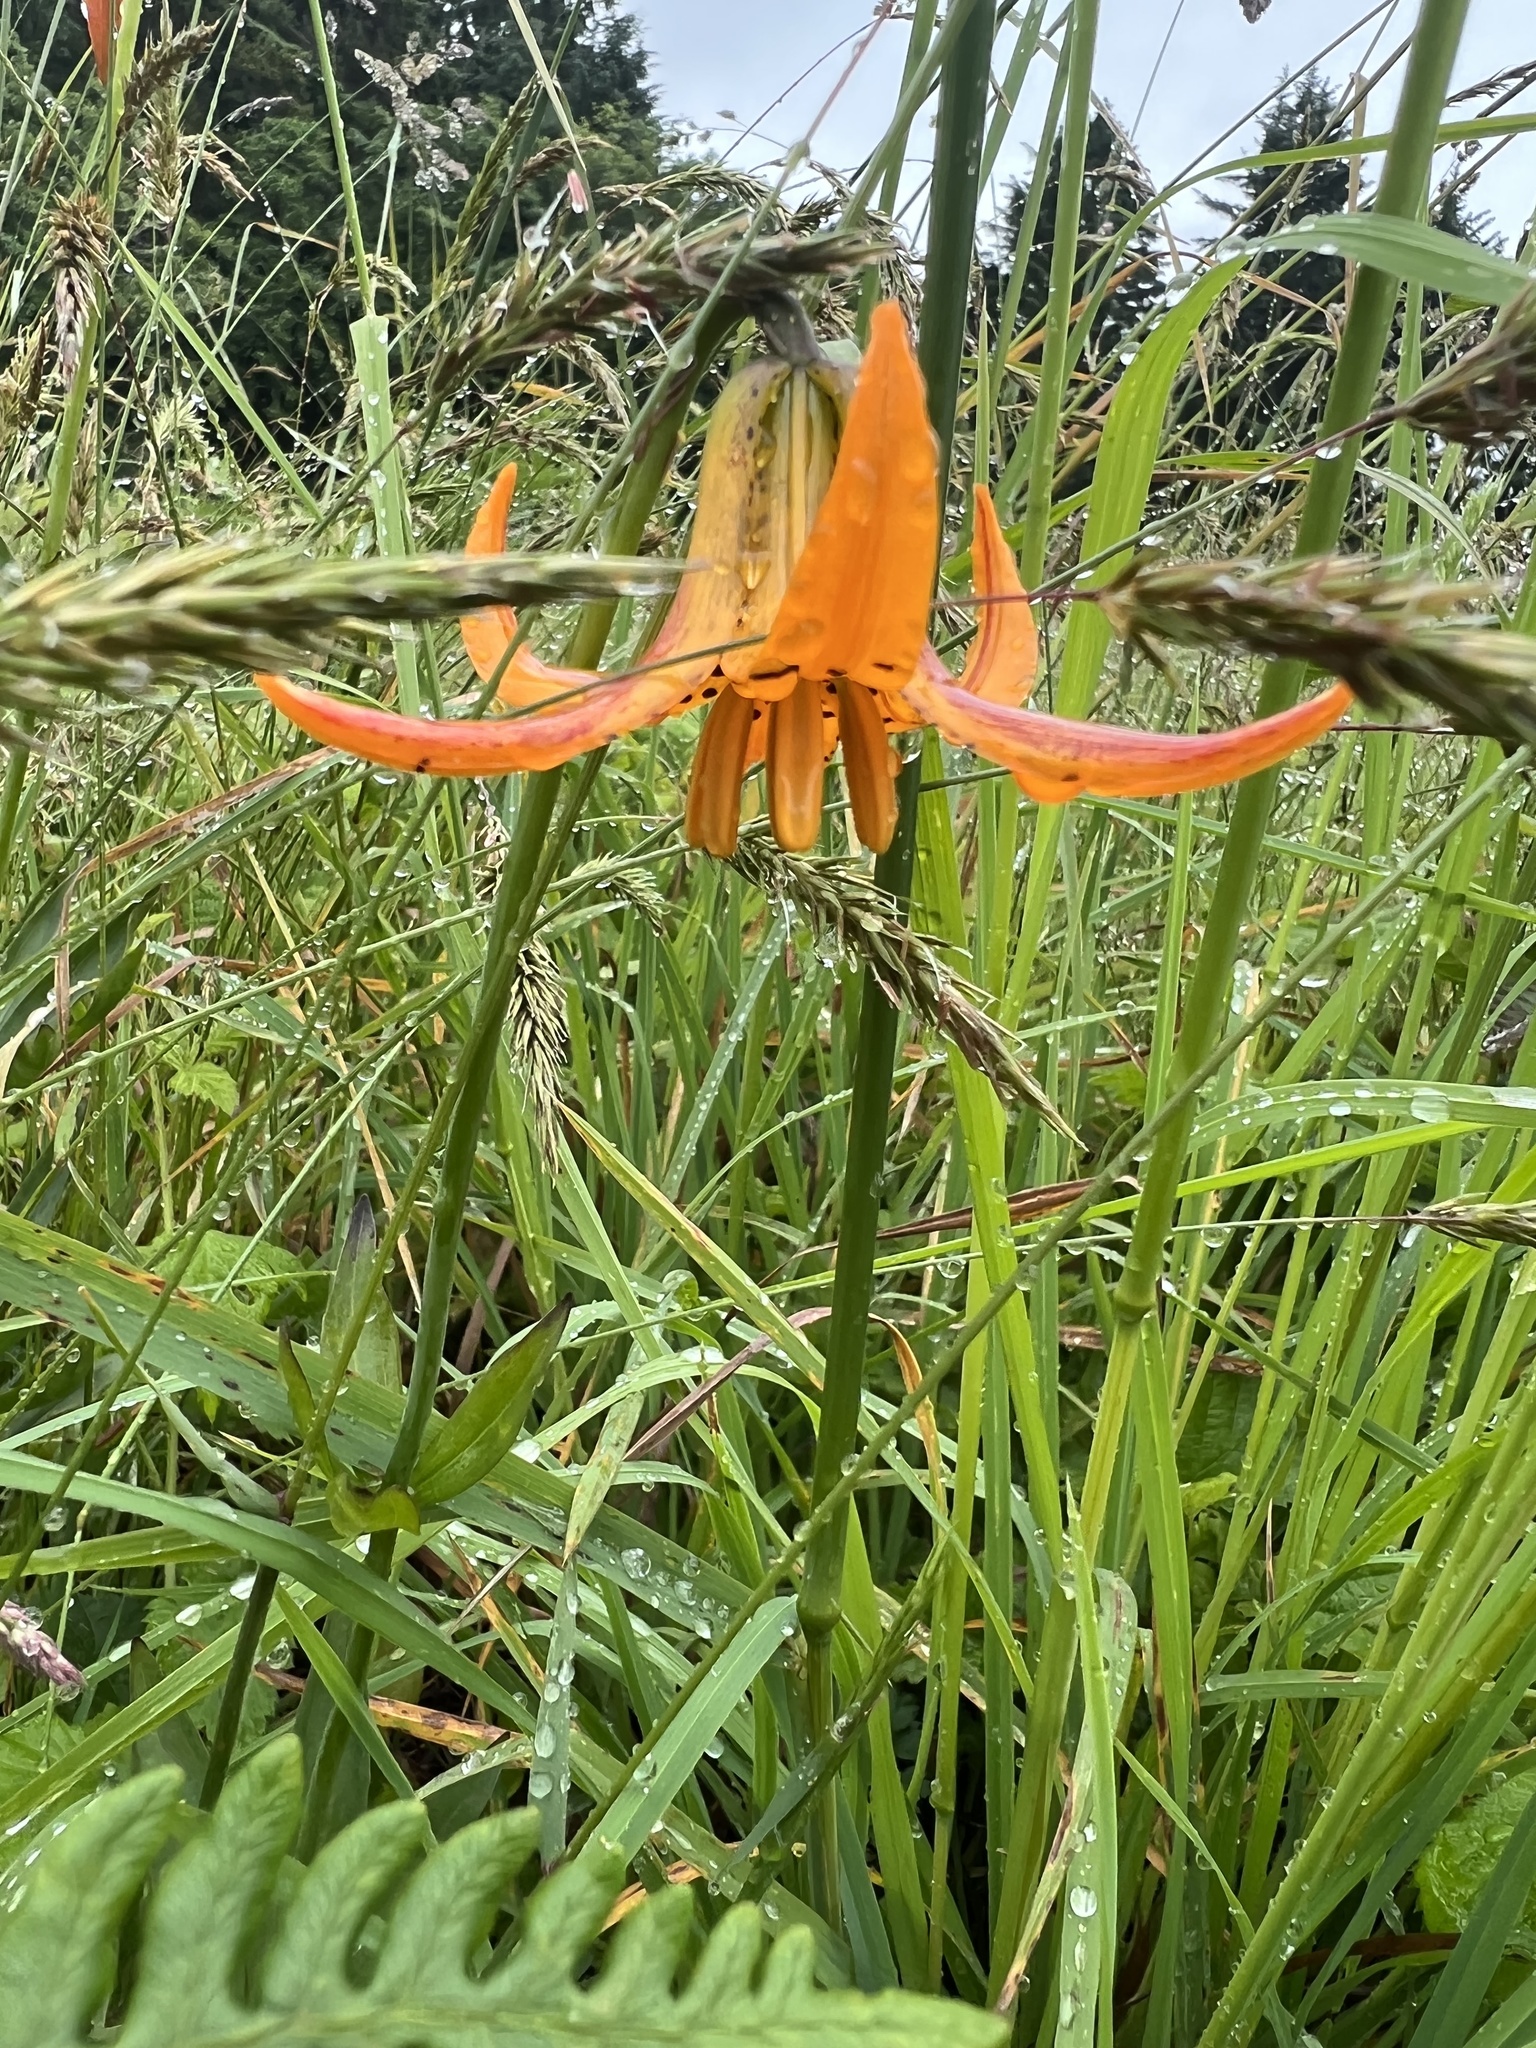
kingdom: Plantae
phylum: Tracheophyta
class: Liliopsida
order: Liliales
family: Liliaceae
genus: Lilium
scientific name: Lilium columbianum
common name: Columbia lily
